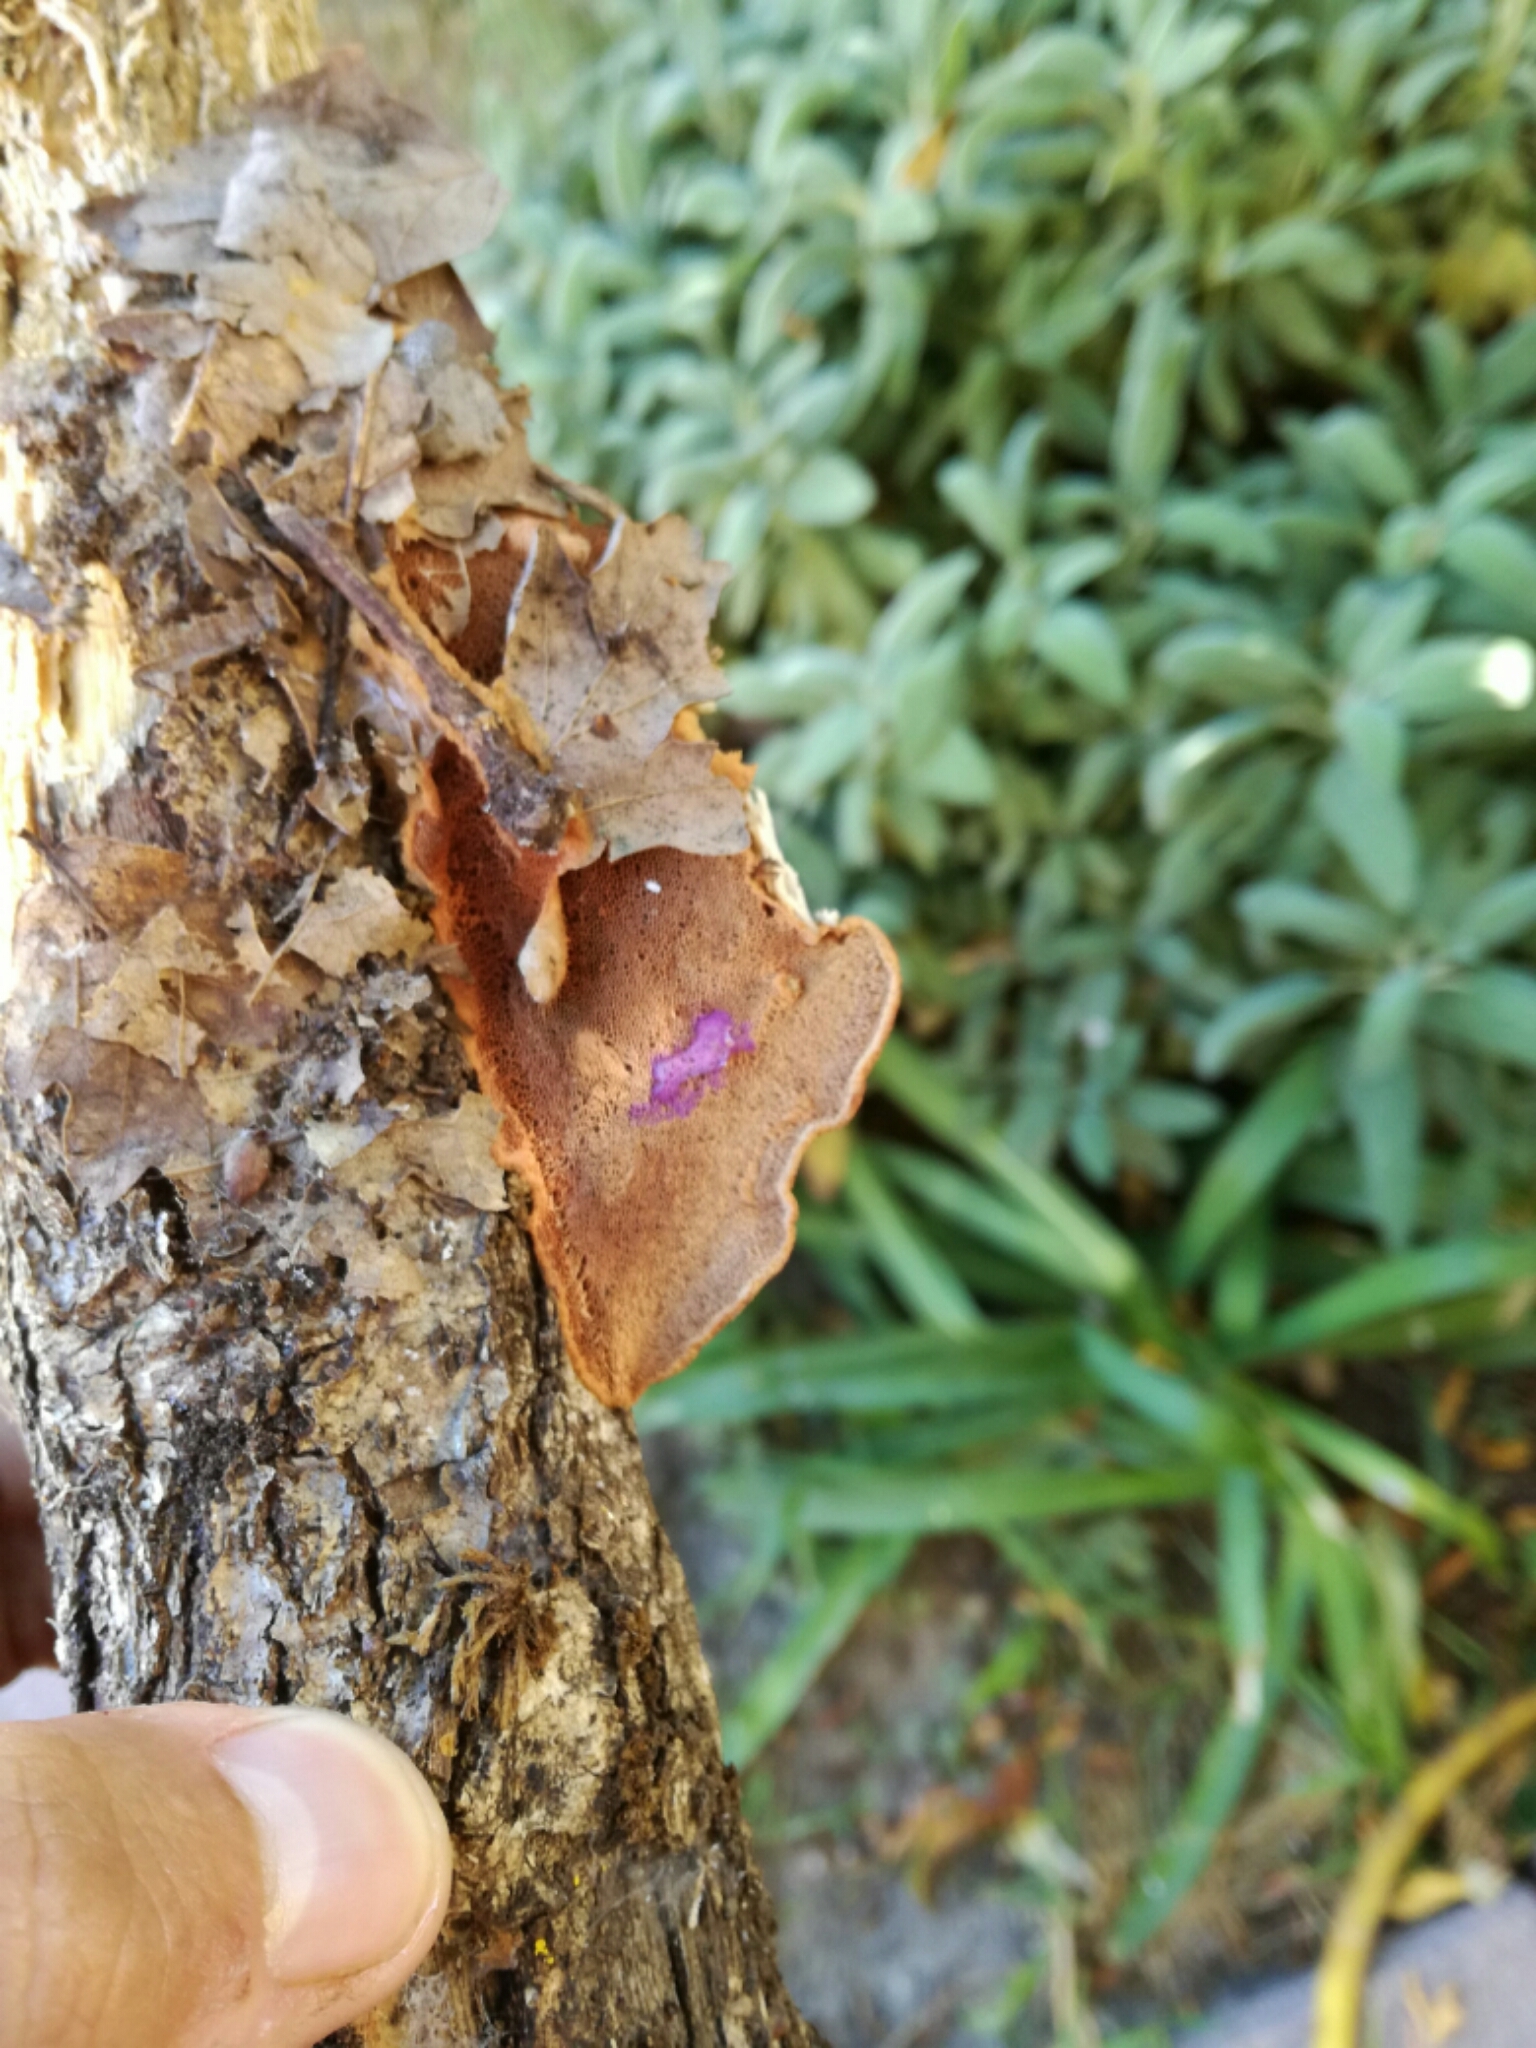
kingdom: Fungi
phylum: Basidiomycota
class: Agaricomycetes
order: Polyporales
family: Phanerochaetaceae
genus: Hapalopilus
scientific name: Hapalopilus rutilans
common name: Tender nesting polypore
